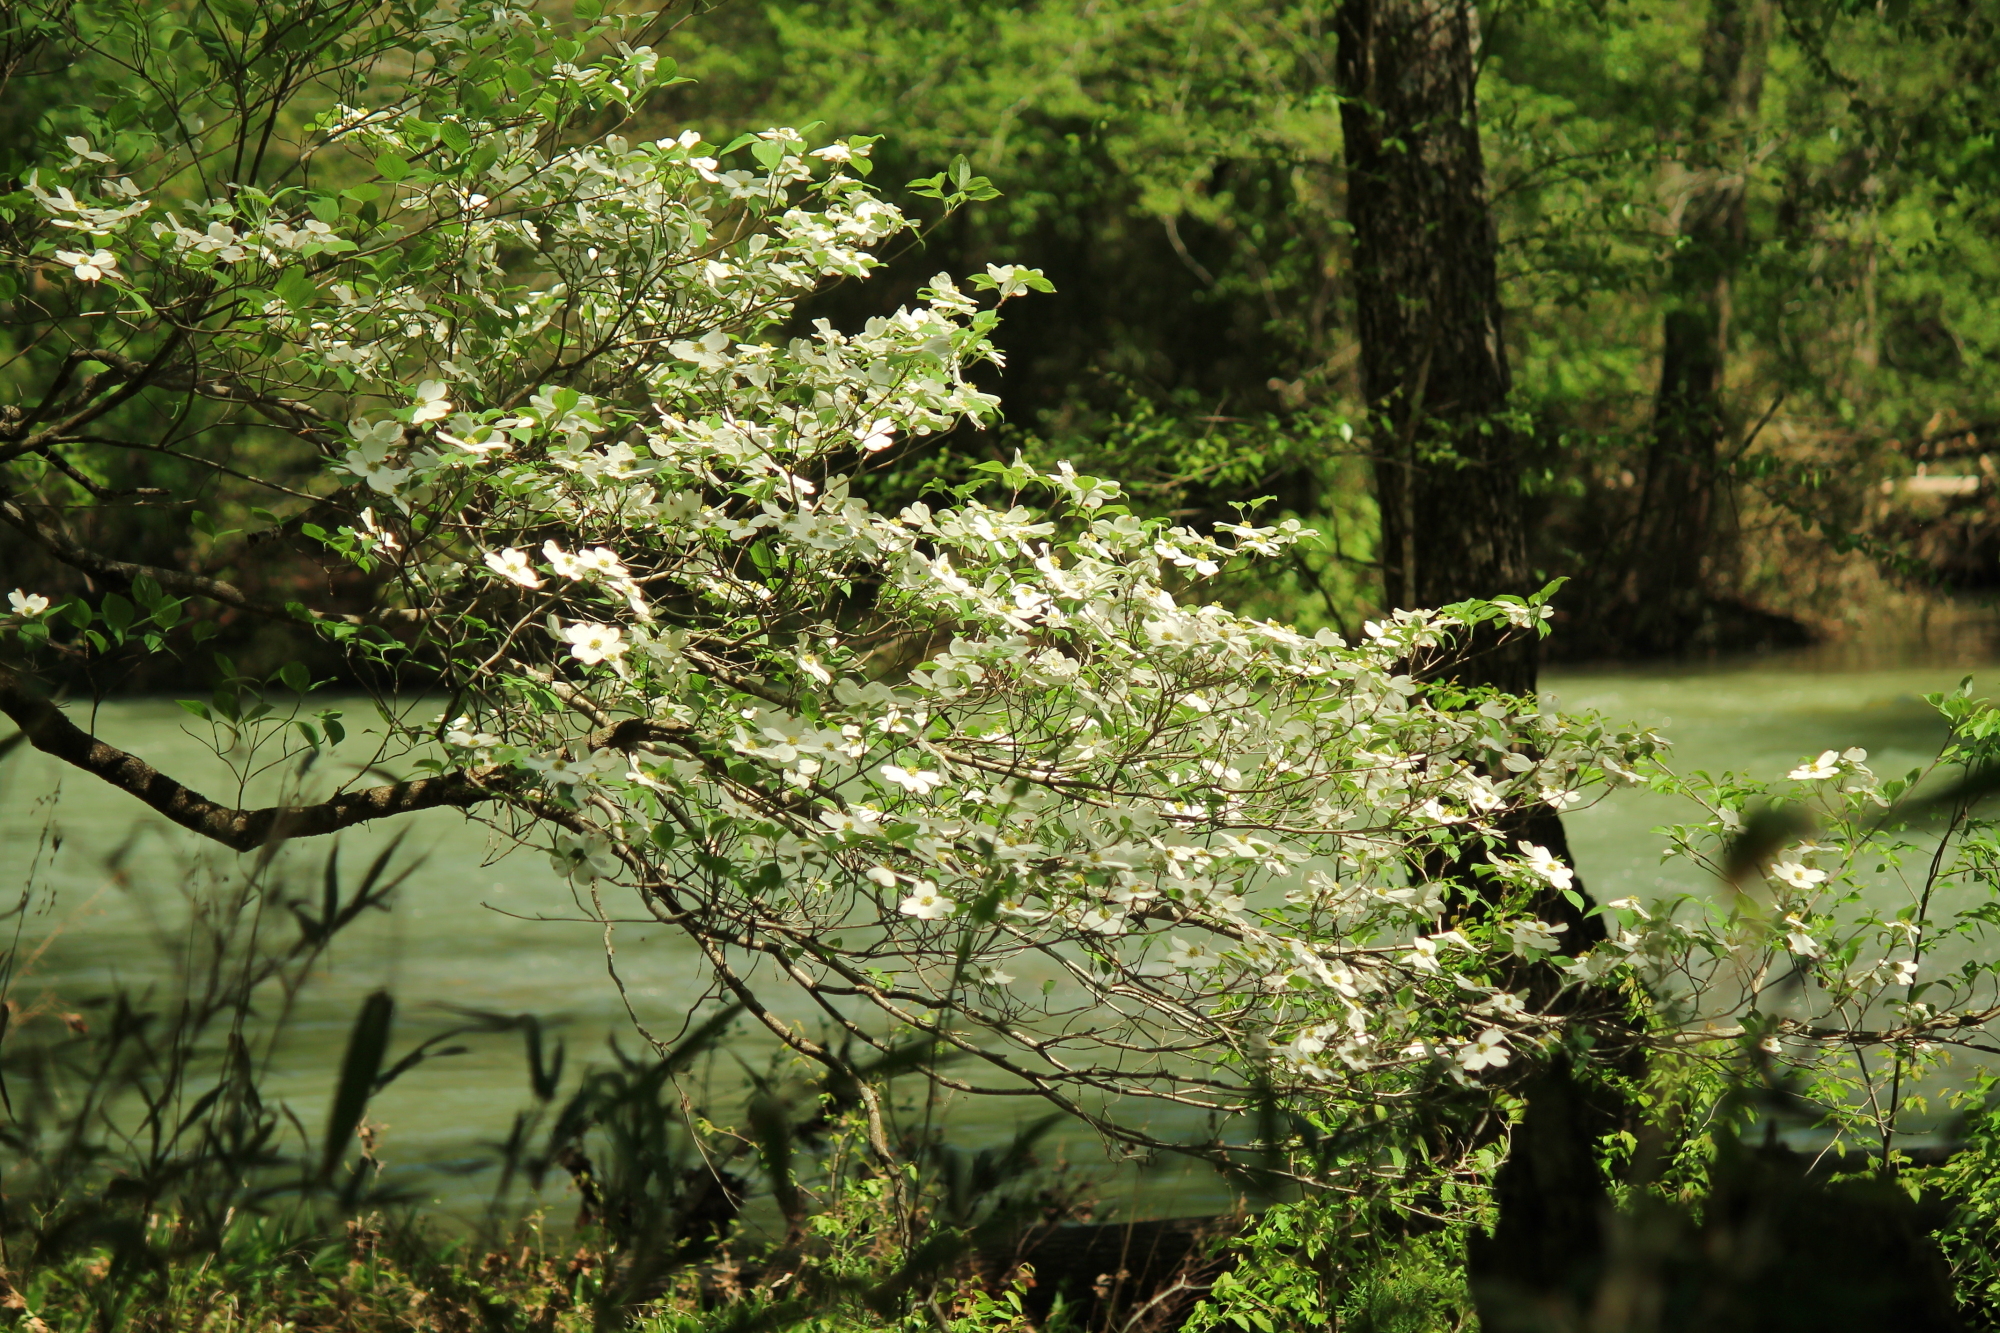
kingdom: Plantae
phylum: Tracheophyta
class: Magnoliopsida
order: Cornales
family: Cornaceae
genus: Cornus
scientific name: Cornus florida
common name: Flowering dogwood
